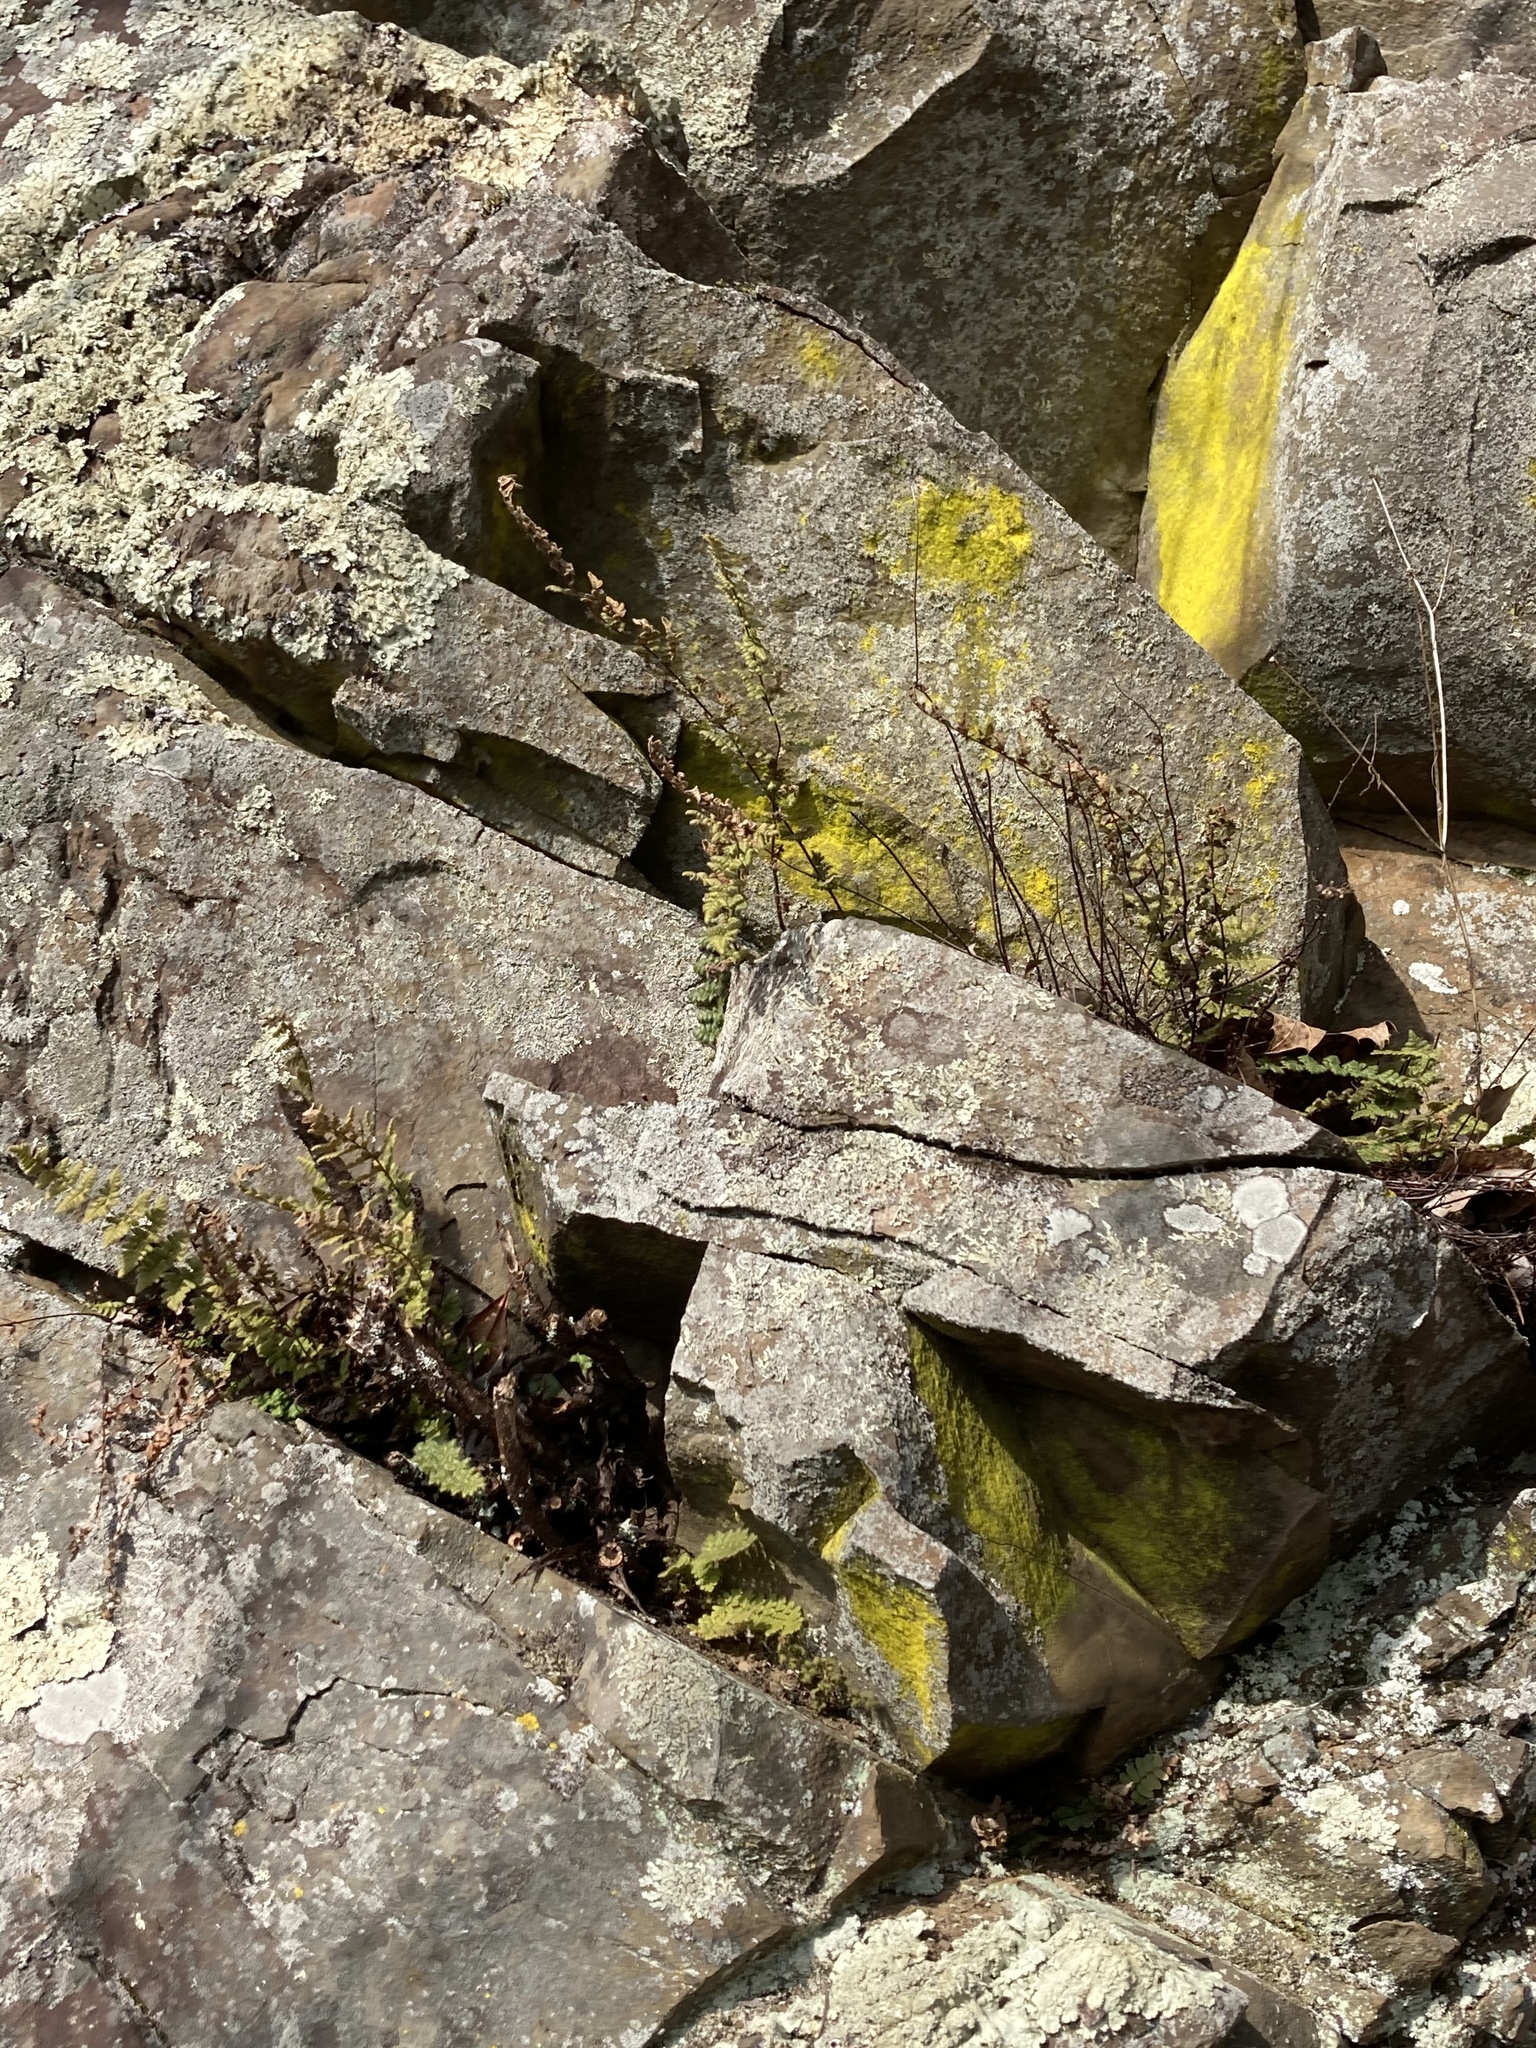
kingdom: Plantae
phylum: Tracheophyta
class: Polypodiopsida
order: Polypodiales
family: Pteridaceae
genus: Myriopteris
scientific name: Myriopteris lanosa
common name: Hairy lip fern
